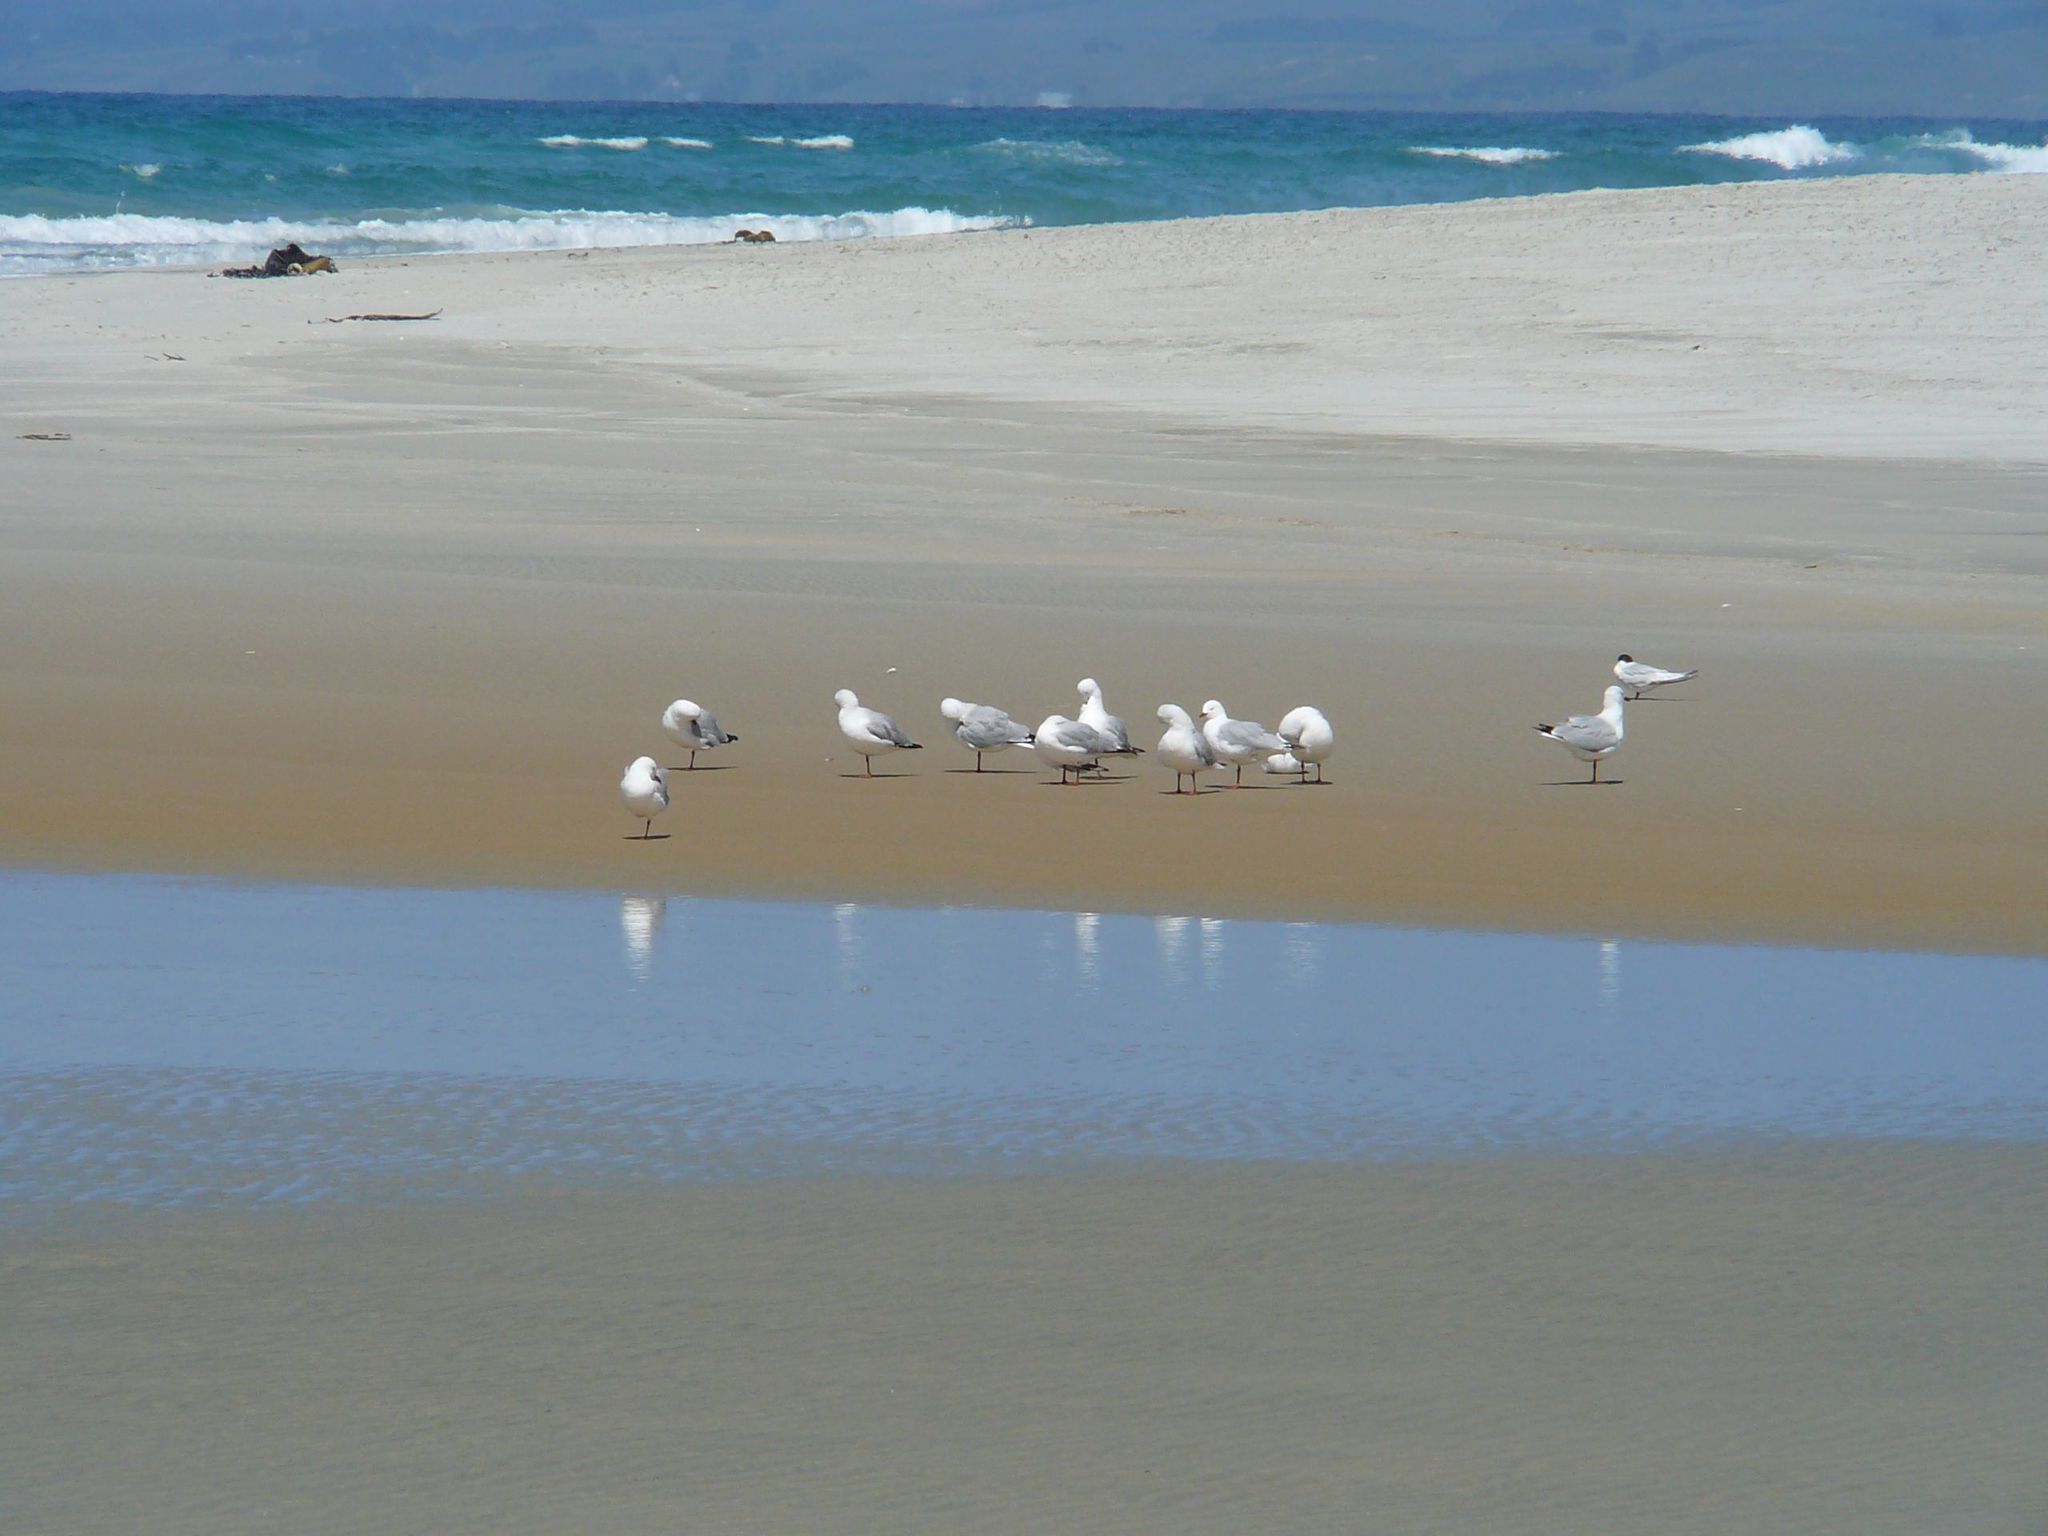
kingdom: Animalia
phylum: Chordata
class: Aves
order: Charadriiformes
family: Laridae
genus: Chroicocephalus
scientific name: Chroicocephalus novaehollandiae
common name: Silver gull
